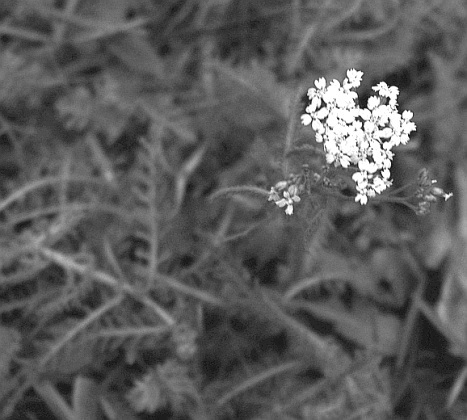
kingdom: Plantae
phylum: Tracheophyta
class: Magnoliopsida
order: Asterales
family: Asteraceae
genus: Achillea
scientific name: Achillea millefolium
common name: Yarrow
